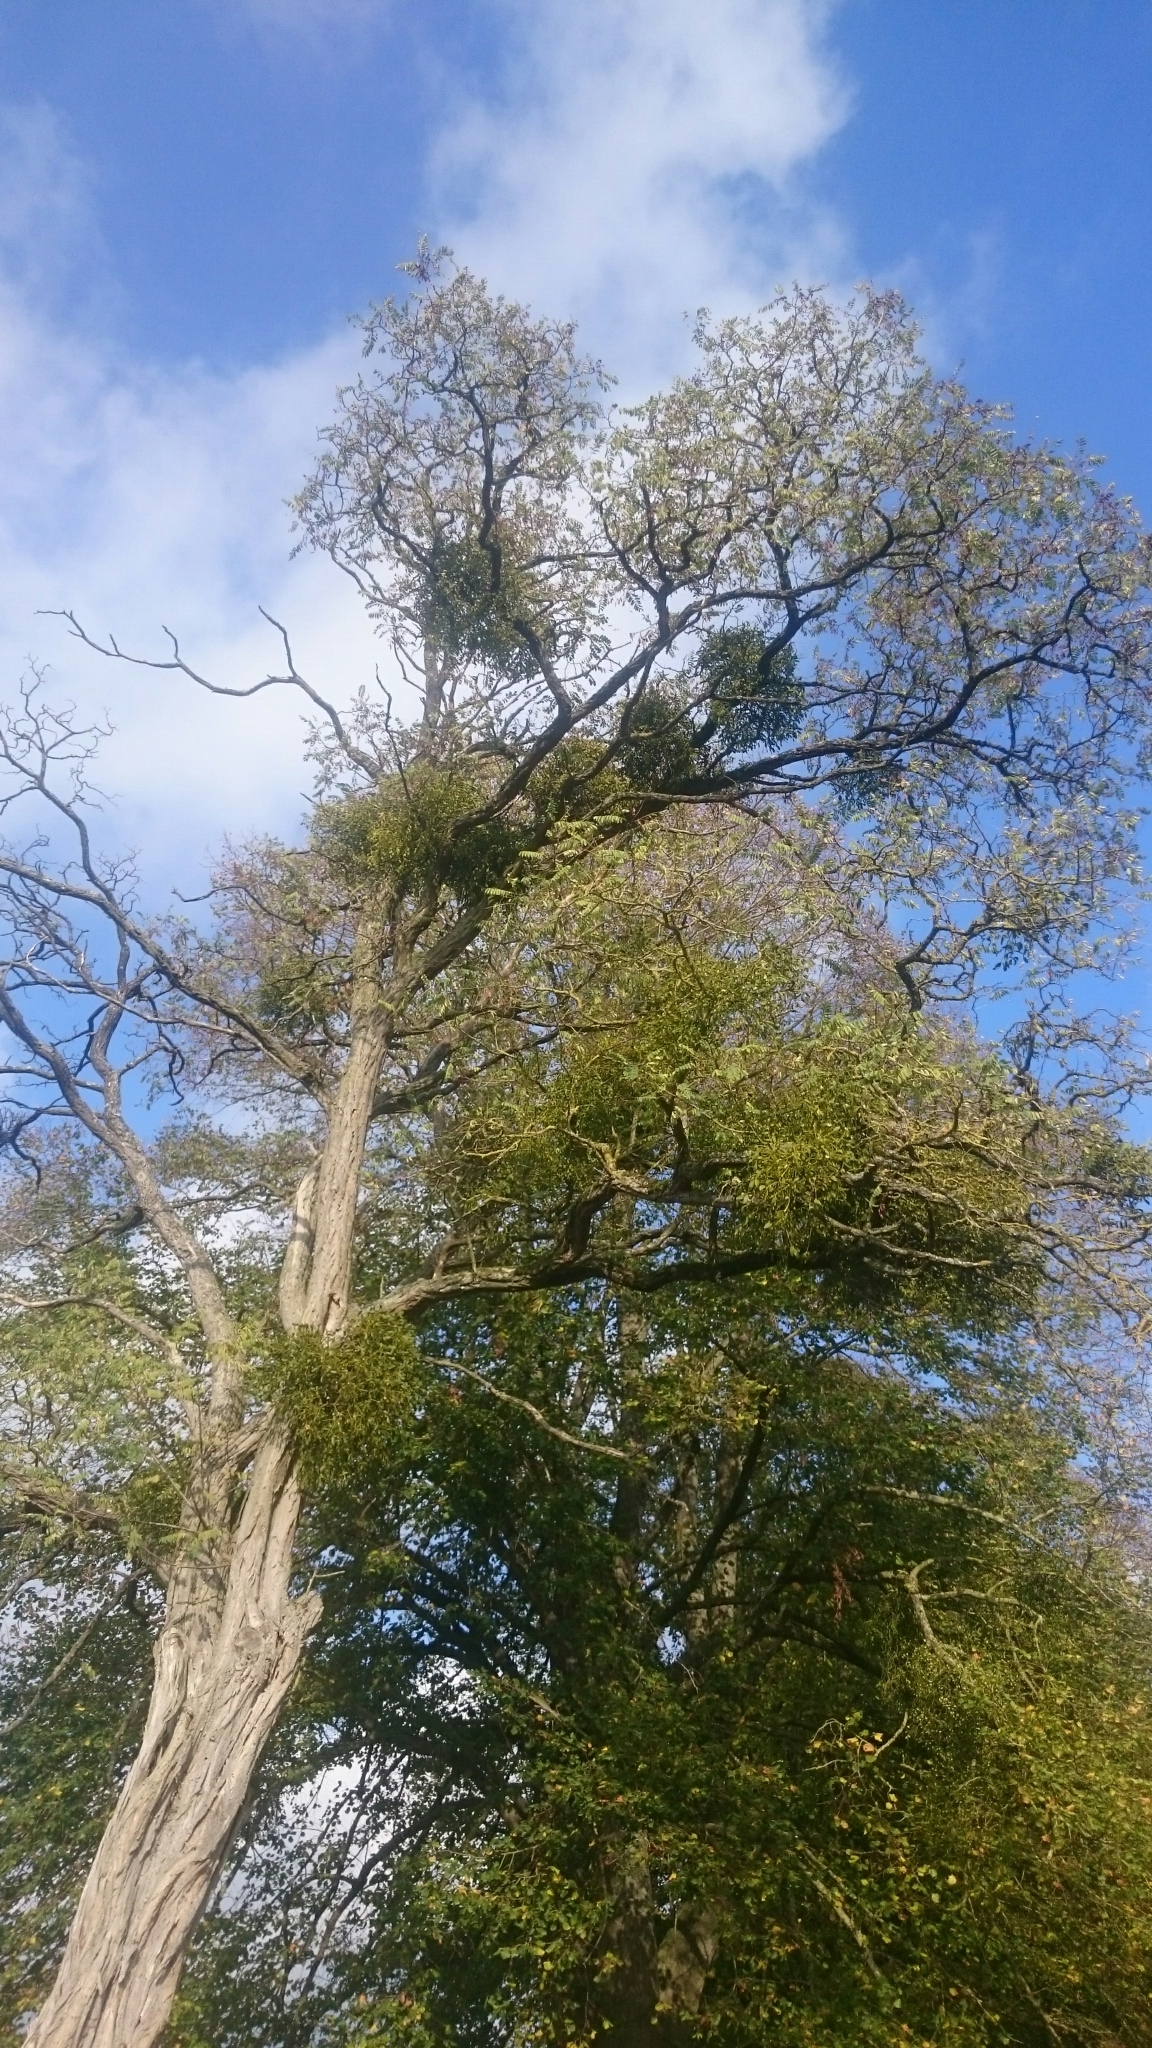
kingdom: Plantae
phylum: Tracheophyta
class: Magnoliopsida
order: Santalales
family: Viscaceae
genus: Viscum
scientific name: Viscum album
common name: Mistletoe
